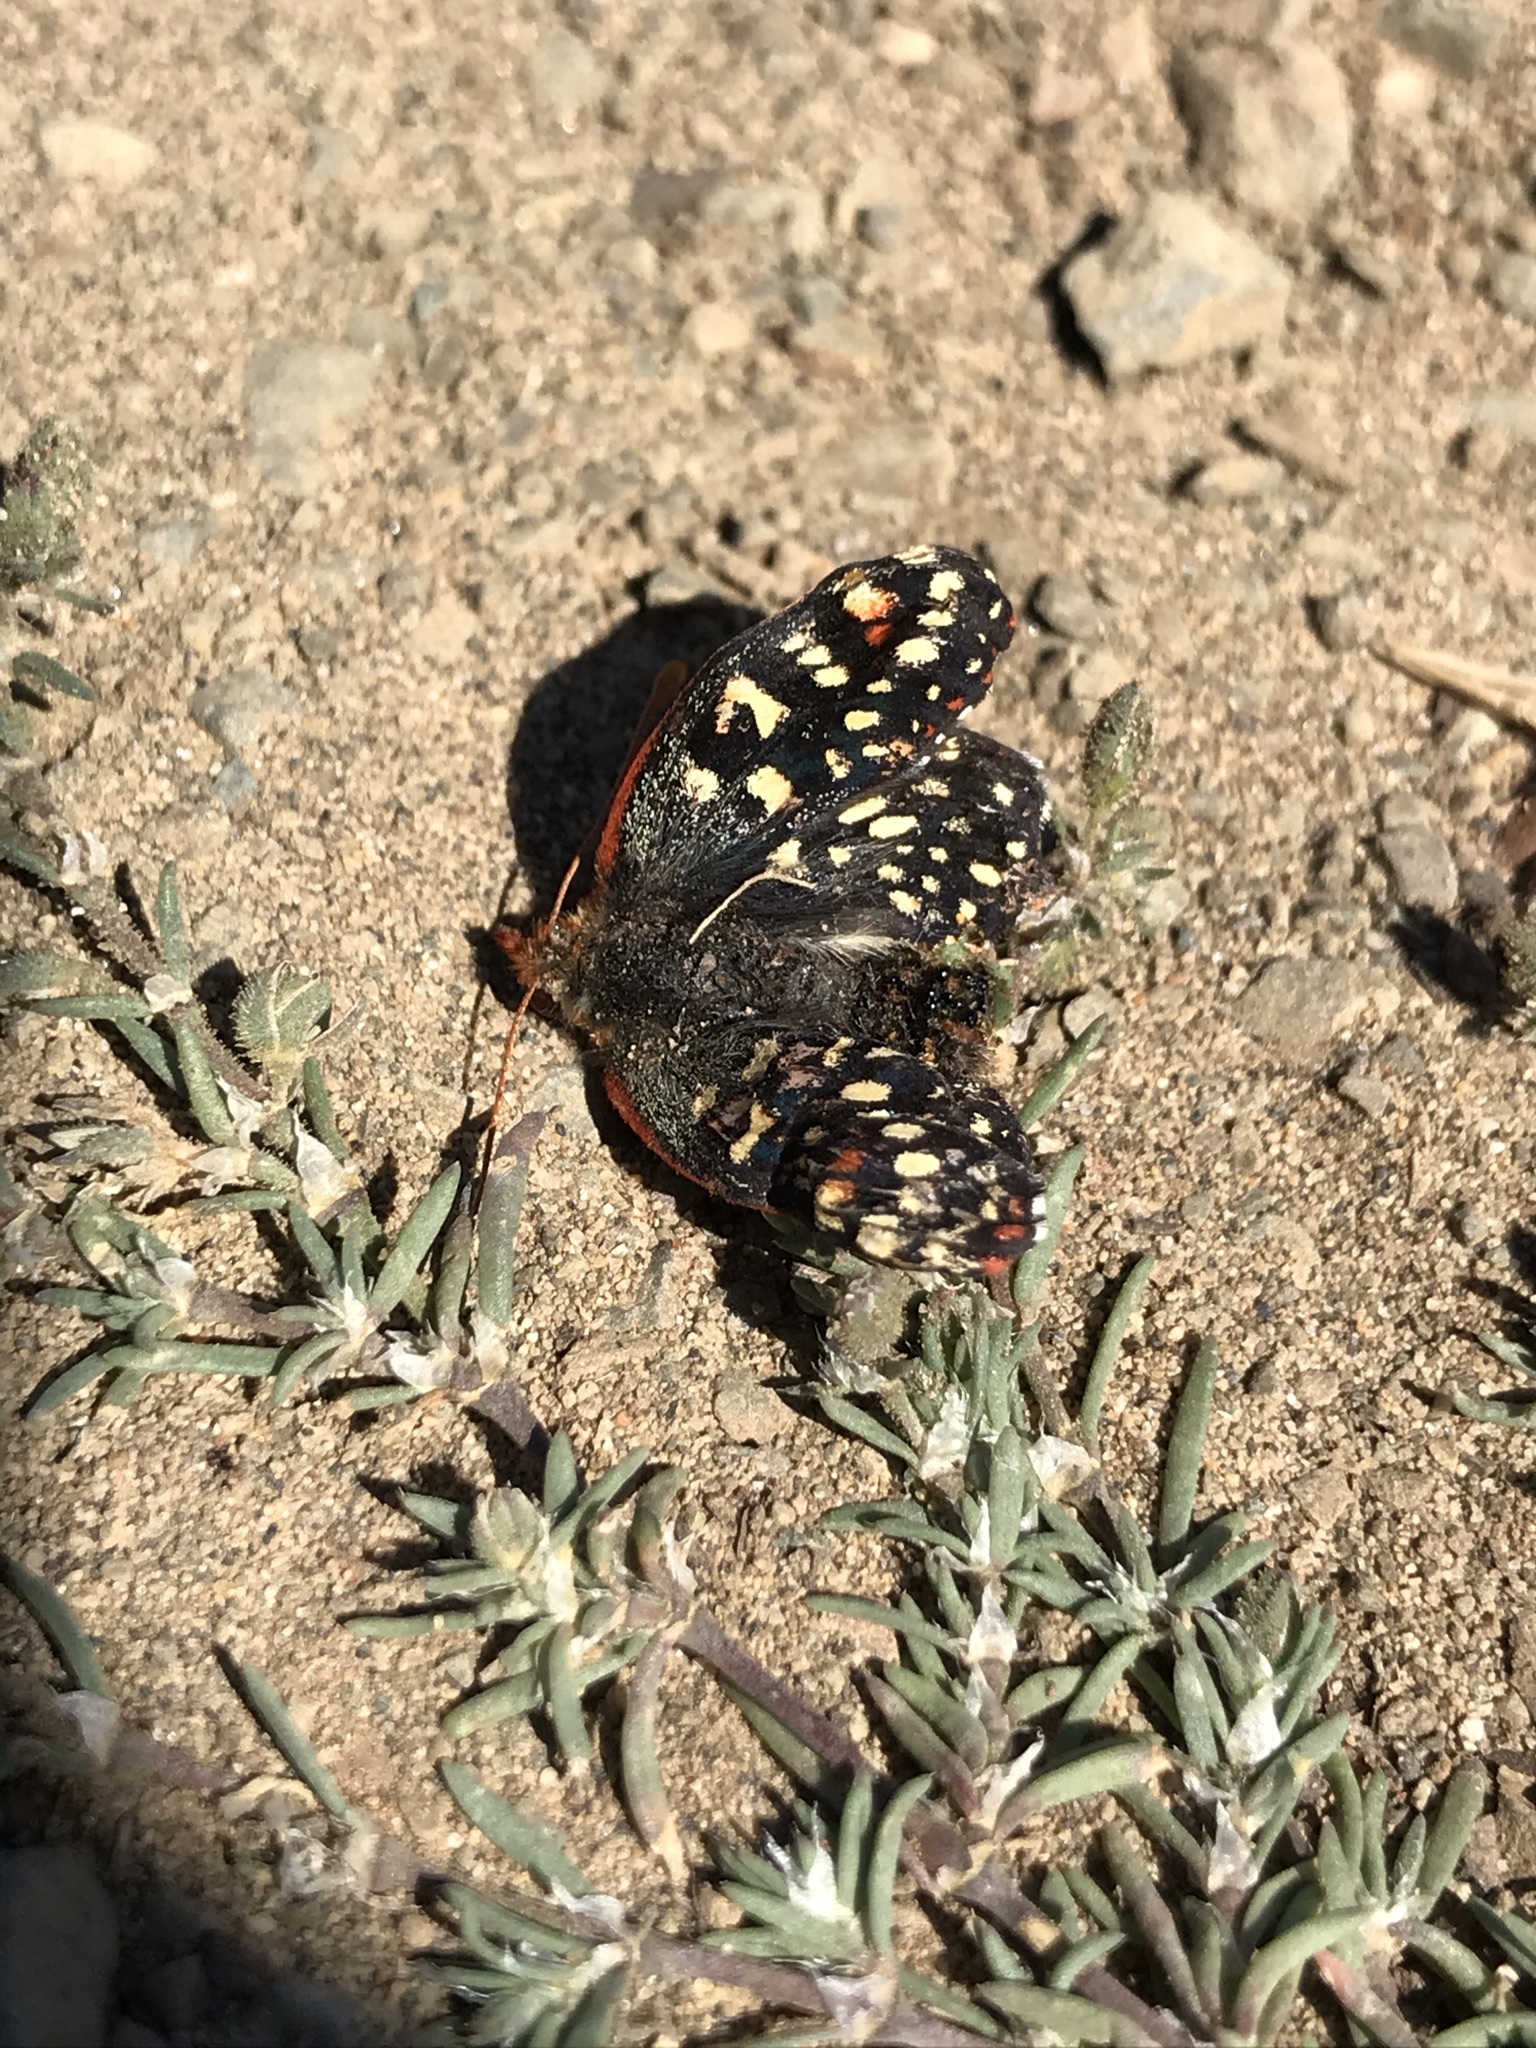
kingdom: Animalia
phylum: Arthropoda
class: Insecta
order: Lepidoptera
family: Nymphalidae
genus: Occidryas
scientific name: Occidryas chalcedona
